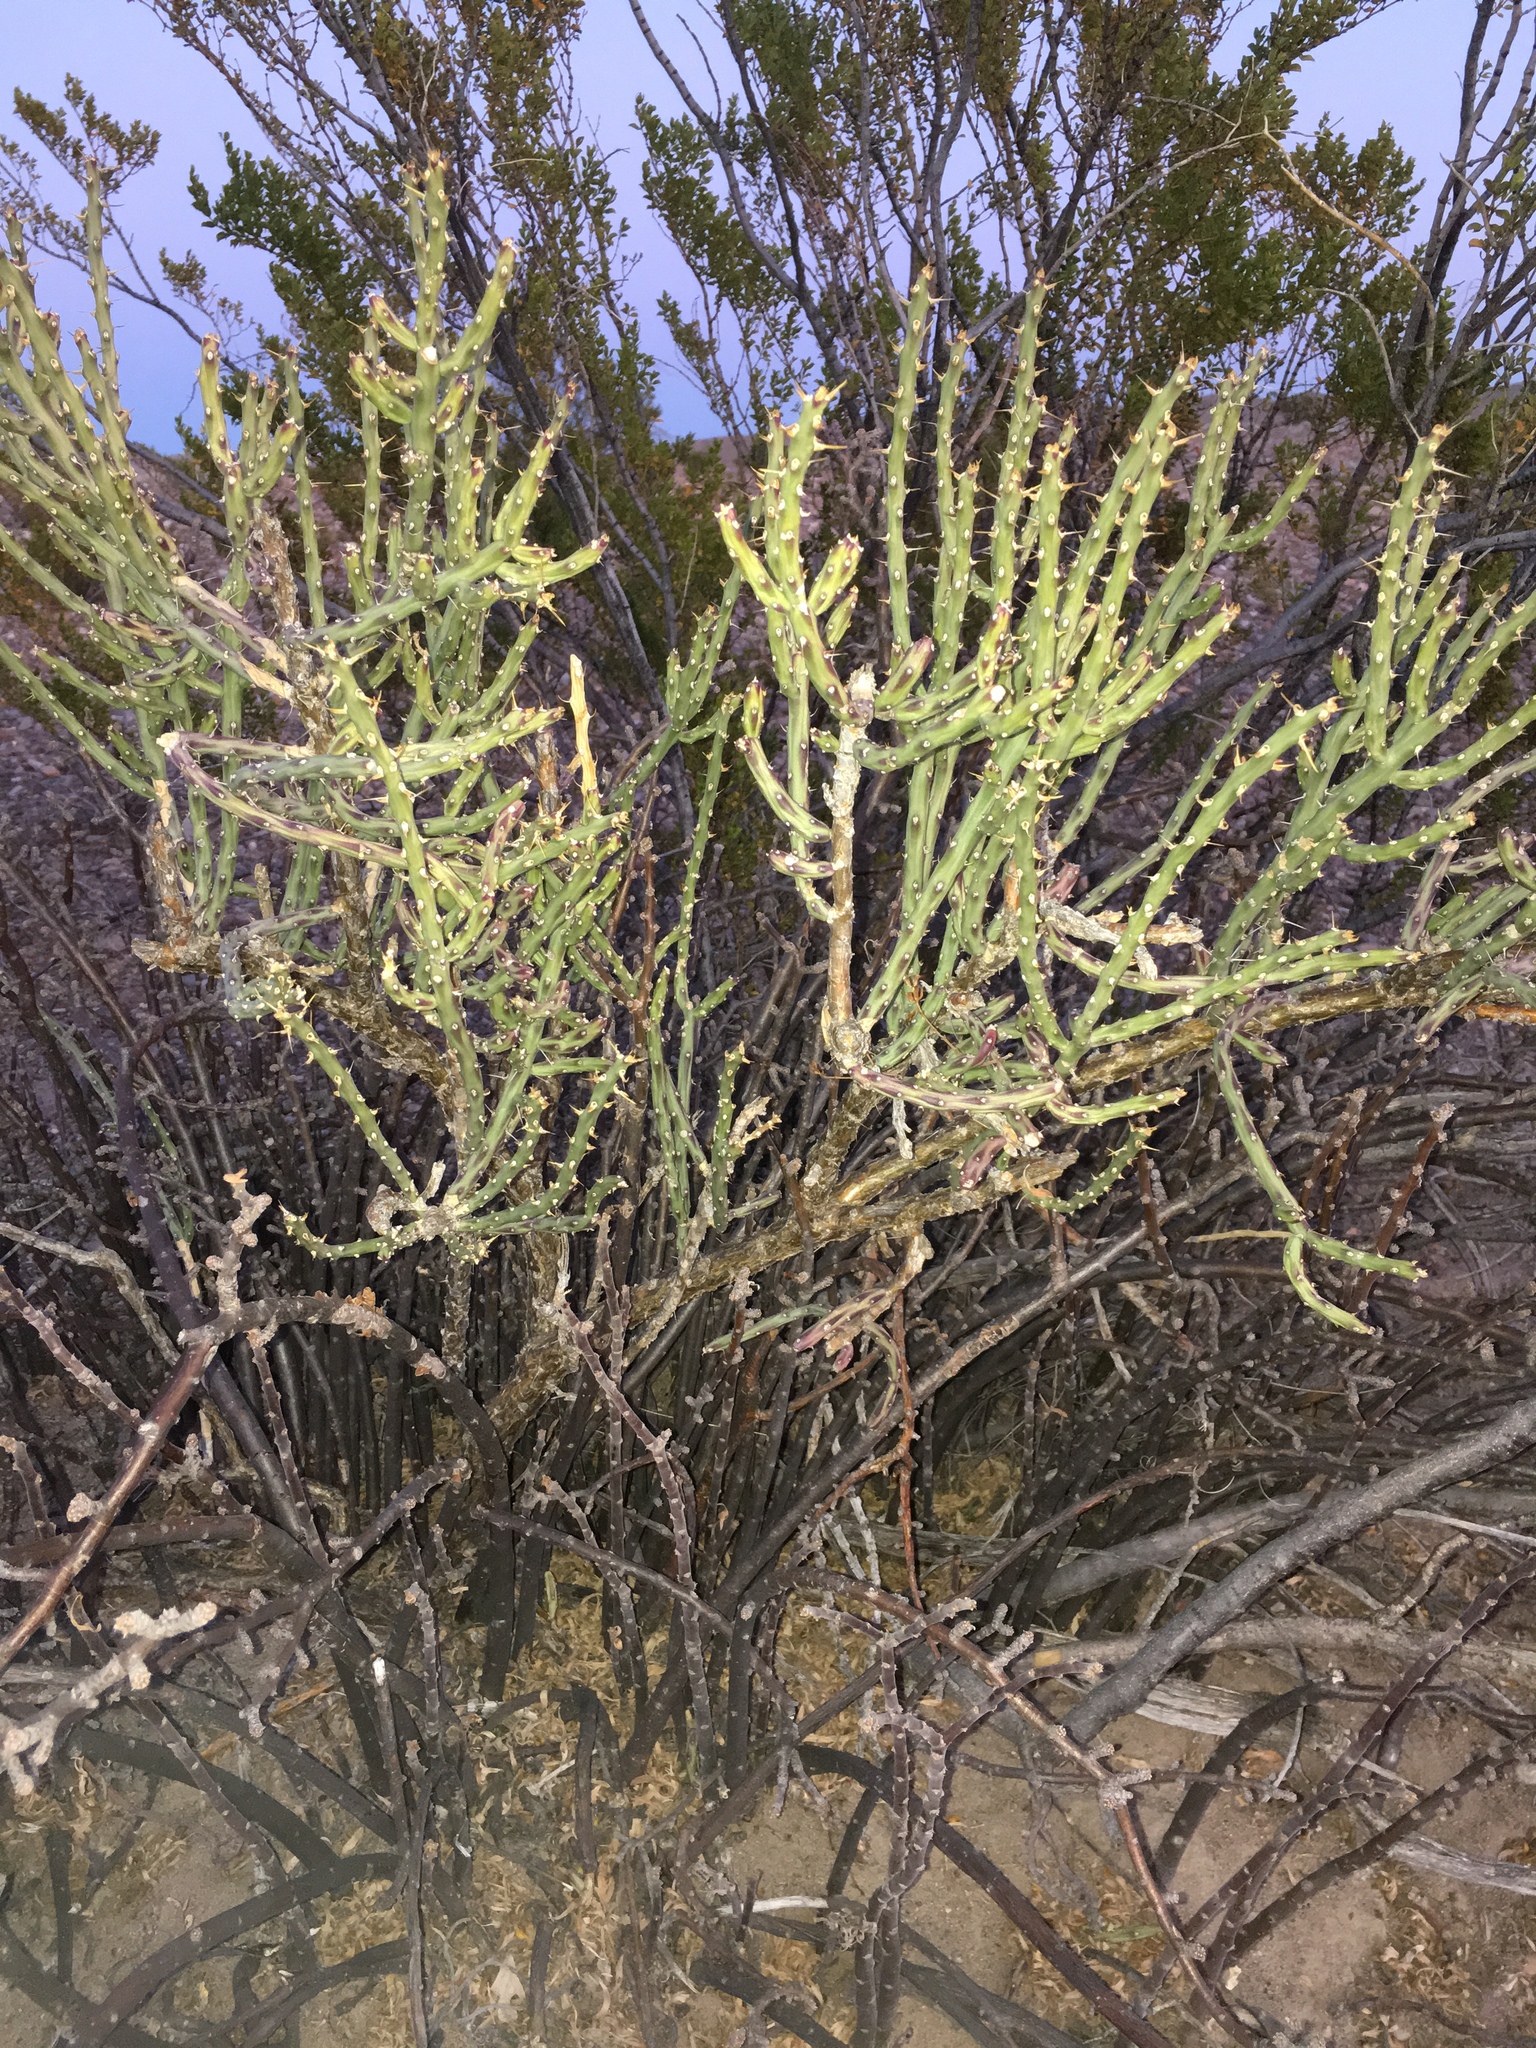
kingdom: Plantae
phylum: Tracheophyta
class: Magnoliopsida
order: Caryophyllales
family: Cactaceae
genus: Cylindropuntia
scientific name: Cylindropuntia leptocaulis
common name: Christmas cactus
